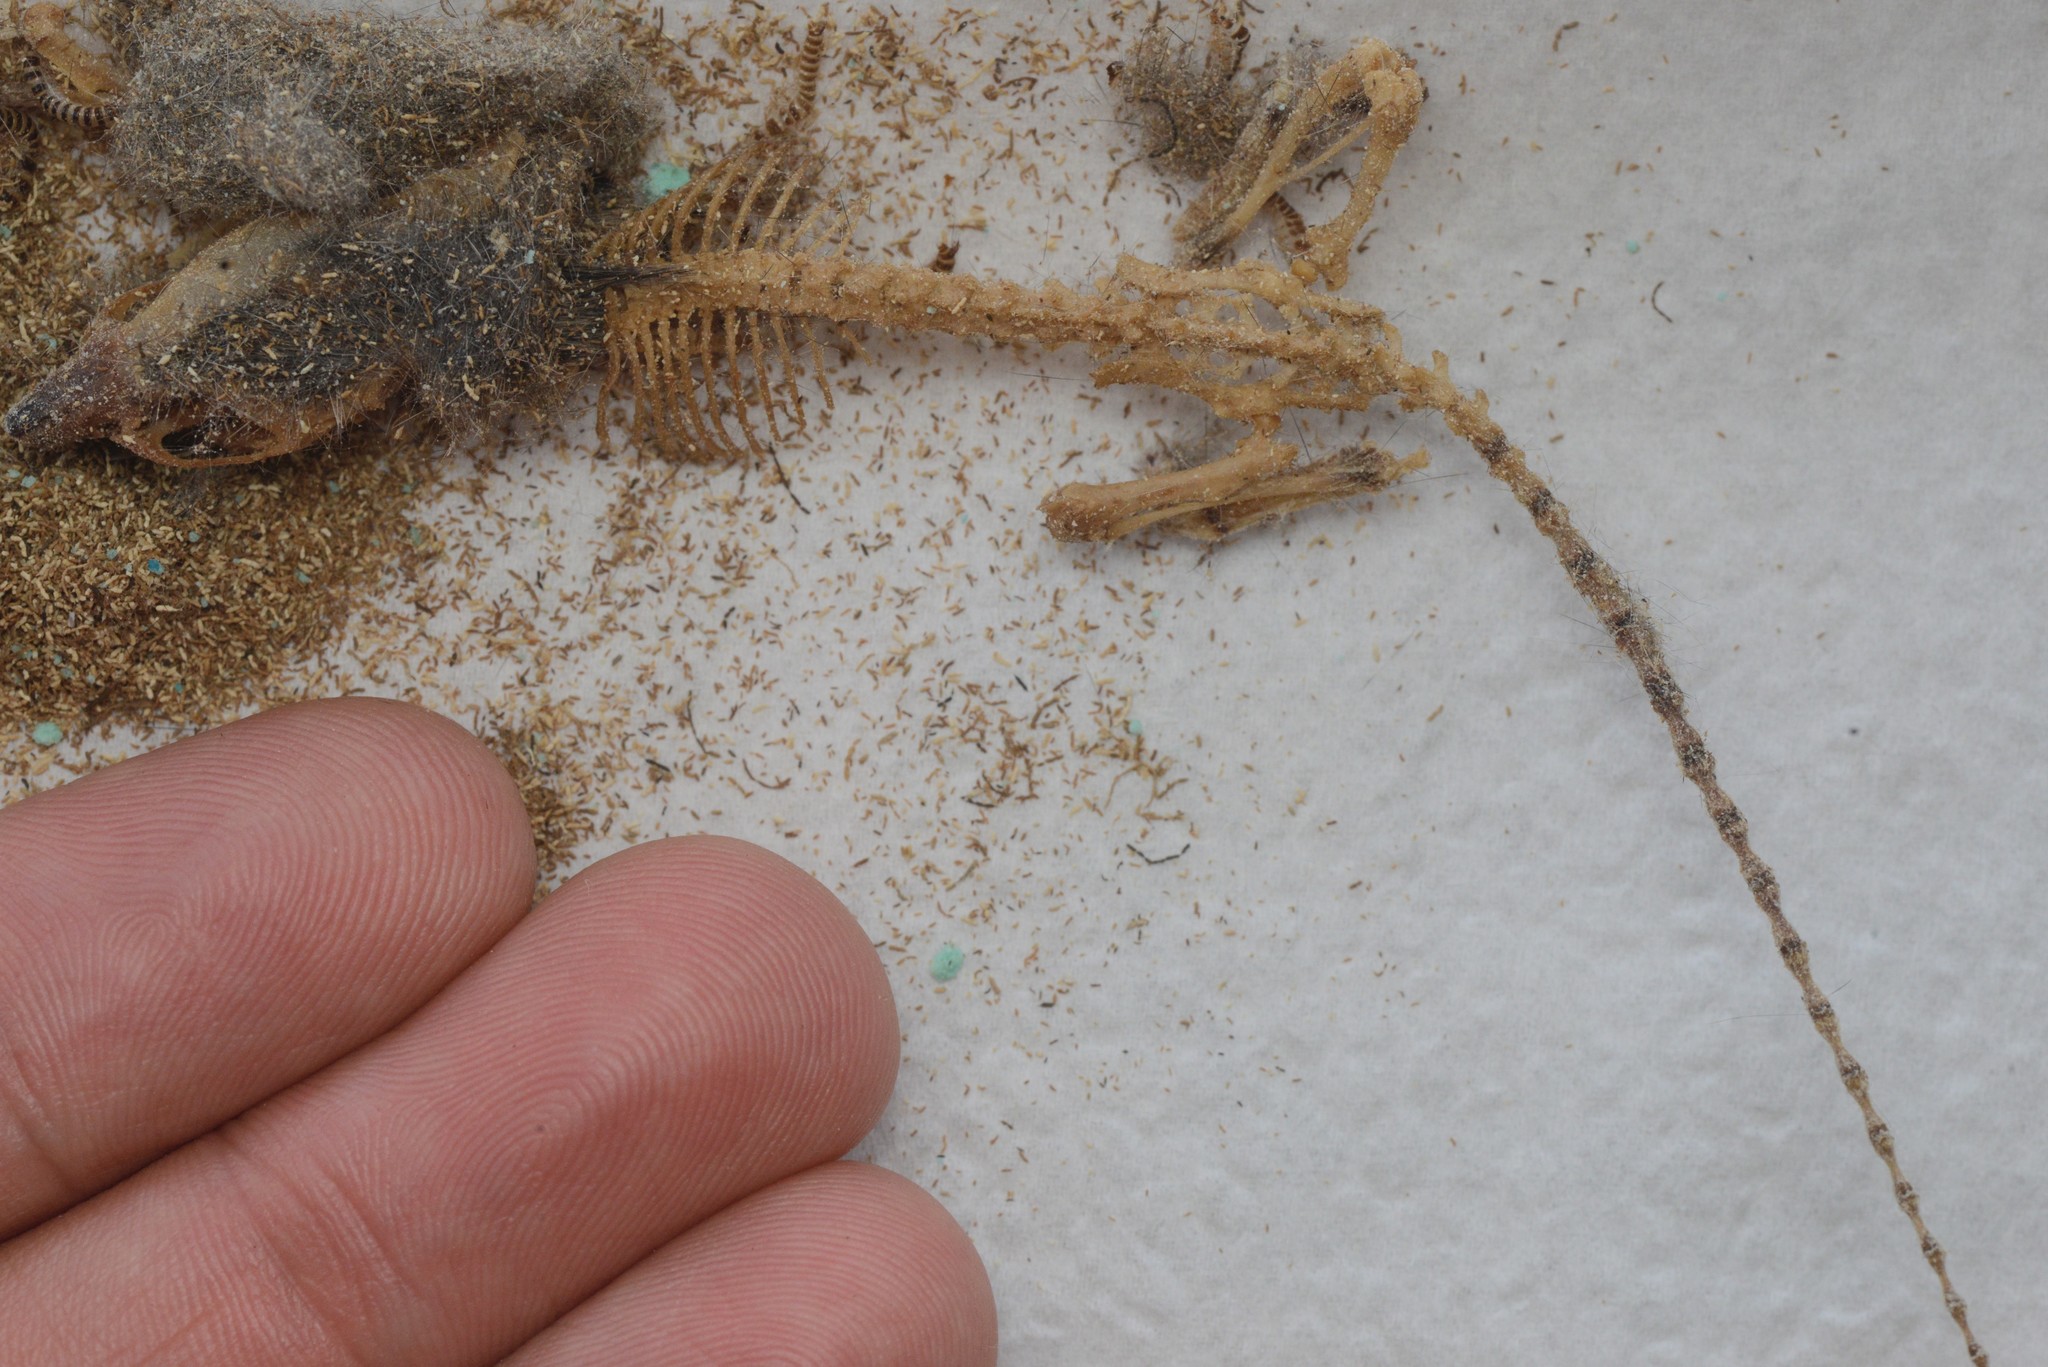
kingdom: Animalia
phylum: Chordata
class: Mammalia
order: Rodentia
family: Muridae
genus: Mus
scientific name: Mus musculus
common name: House mouse
